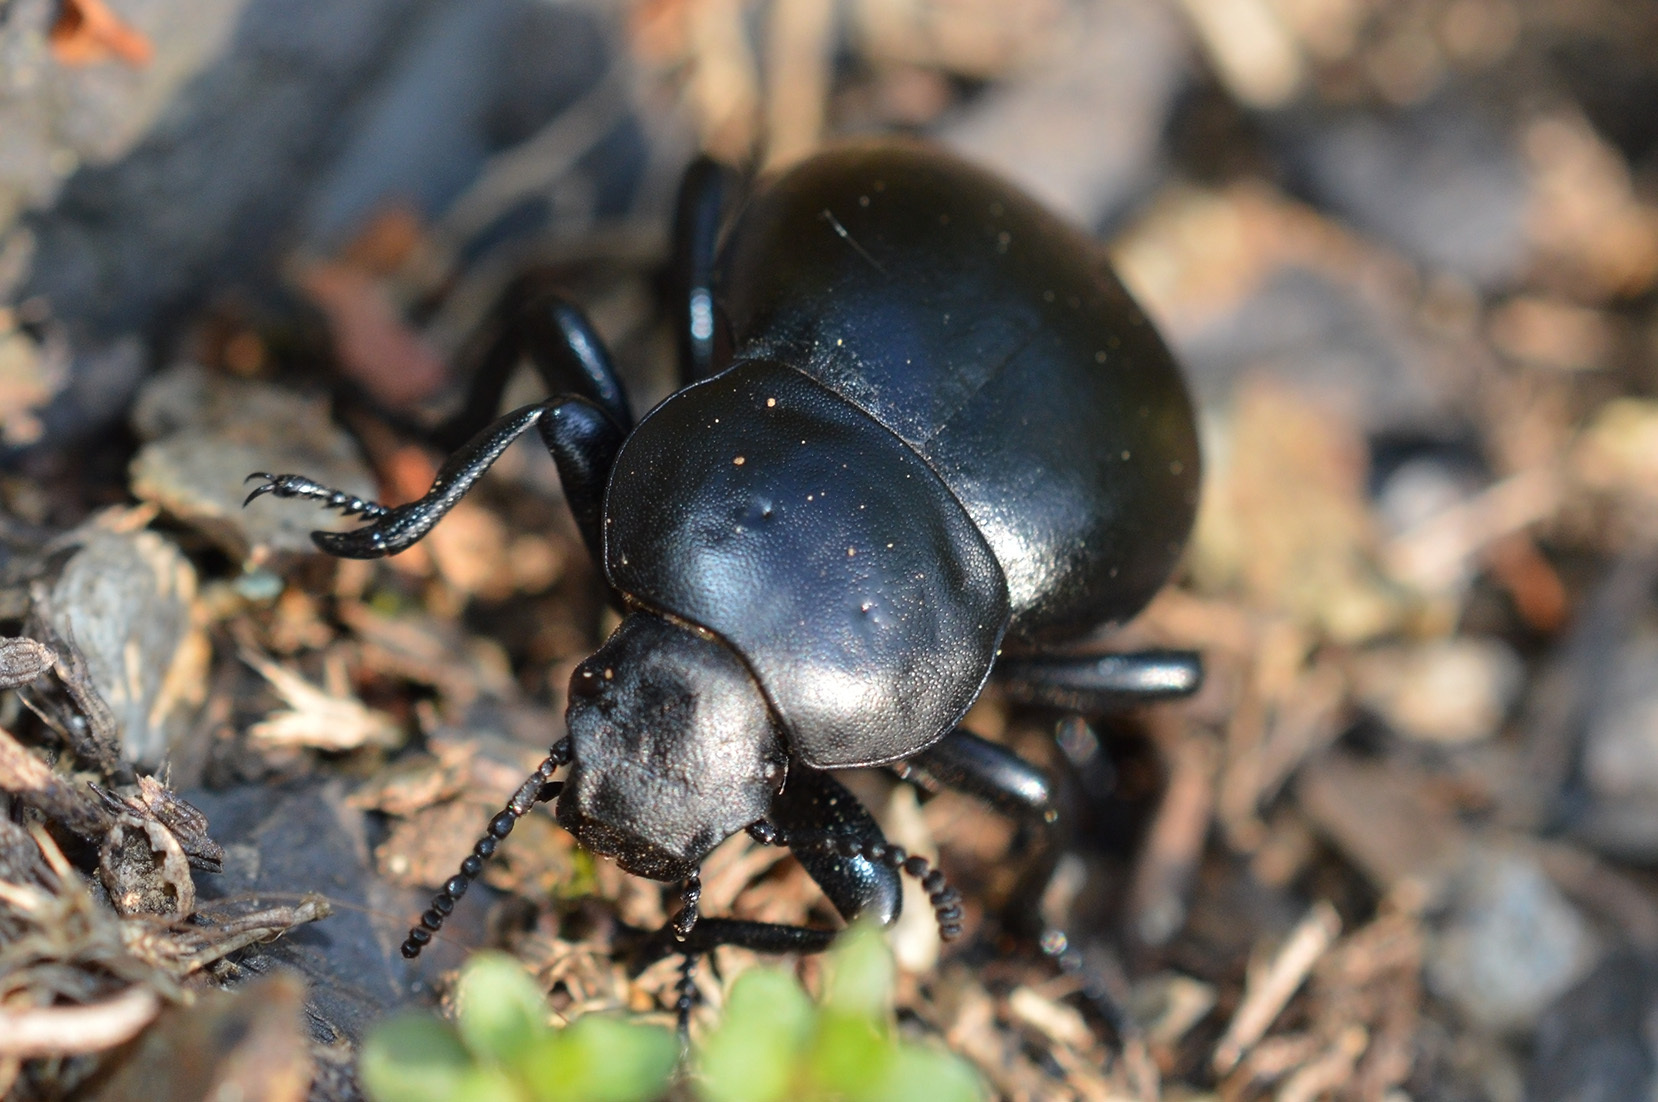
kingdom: Animalia
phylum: Arthropoda
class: Insecta
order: Coleoptera
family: Tenebrionidae
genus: Gnaptor
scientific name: Gnaptor spinimanus
